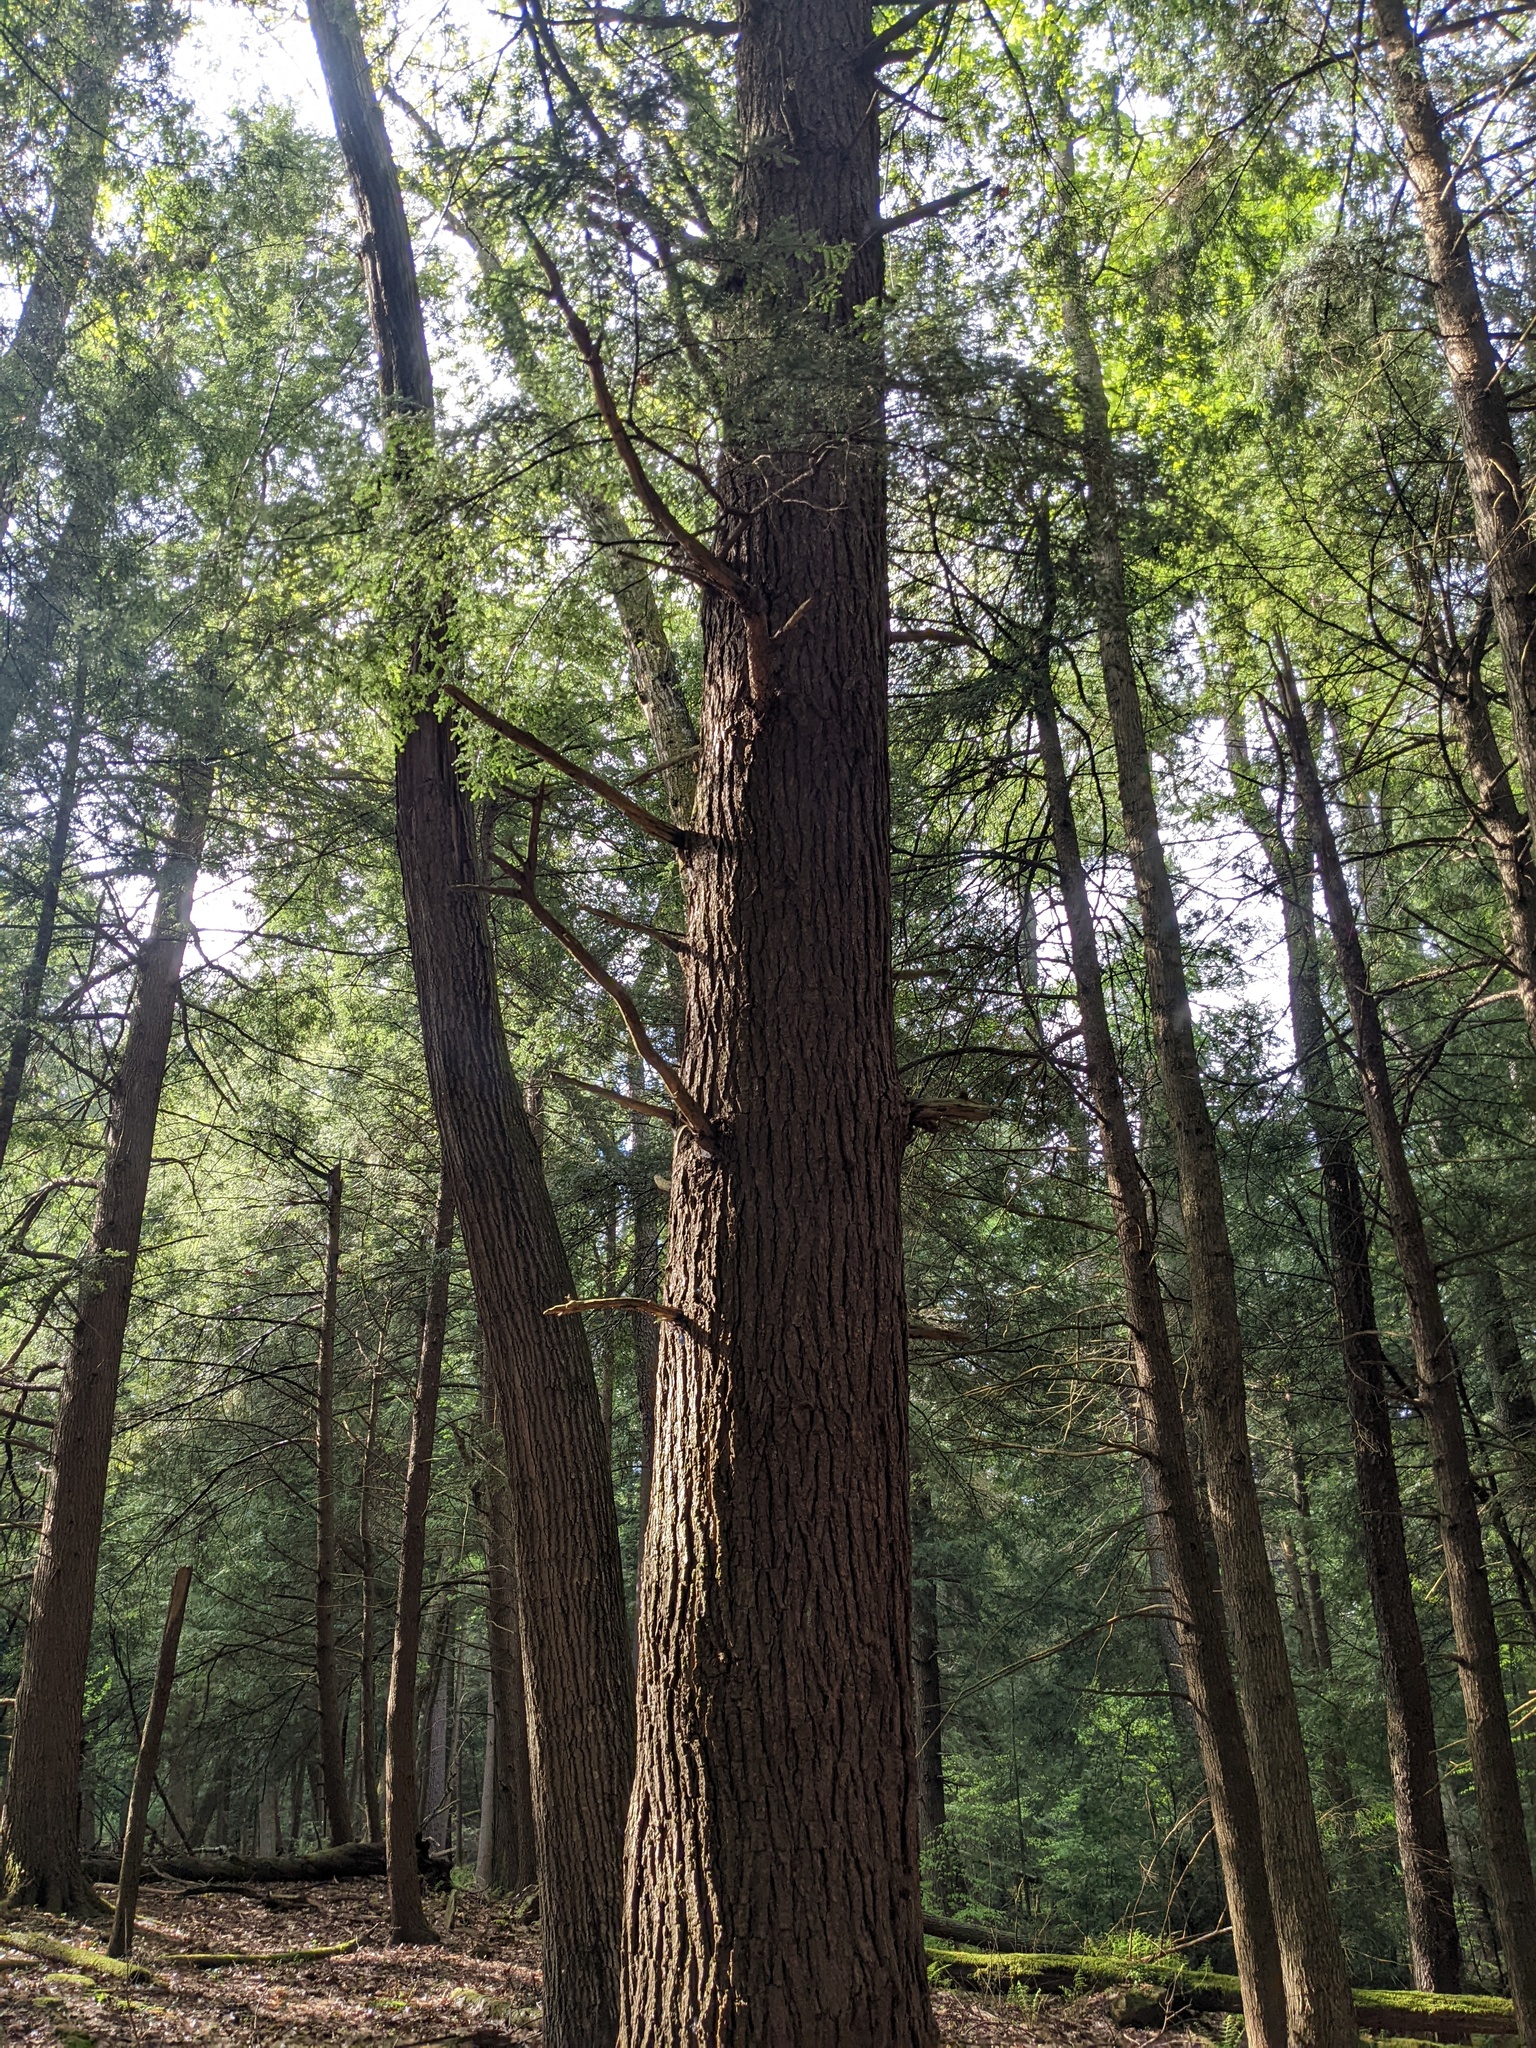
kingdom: Plantae
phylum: Tracheophyta
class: Pinopsida
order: Pinales
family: Pinaceae
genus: Tsuga
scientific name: Tsuga canadensis
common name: Eastern hemlock
